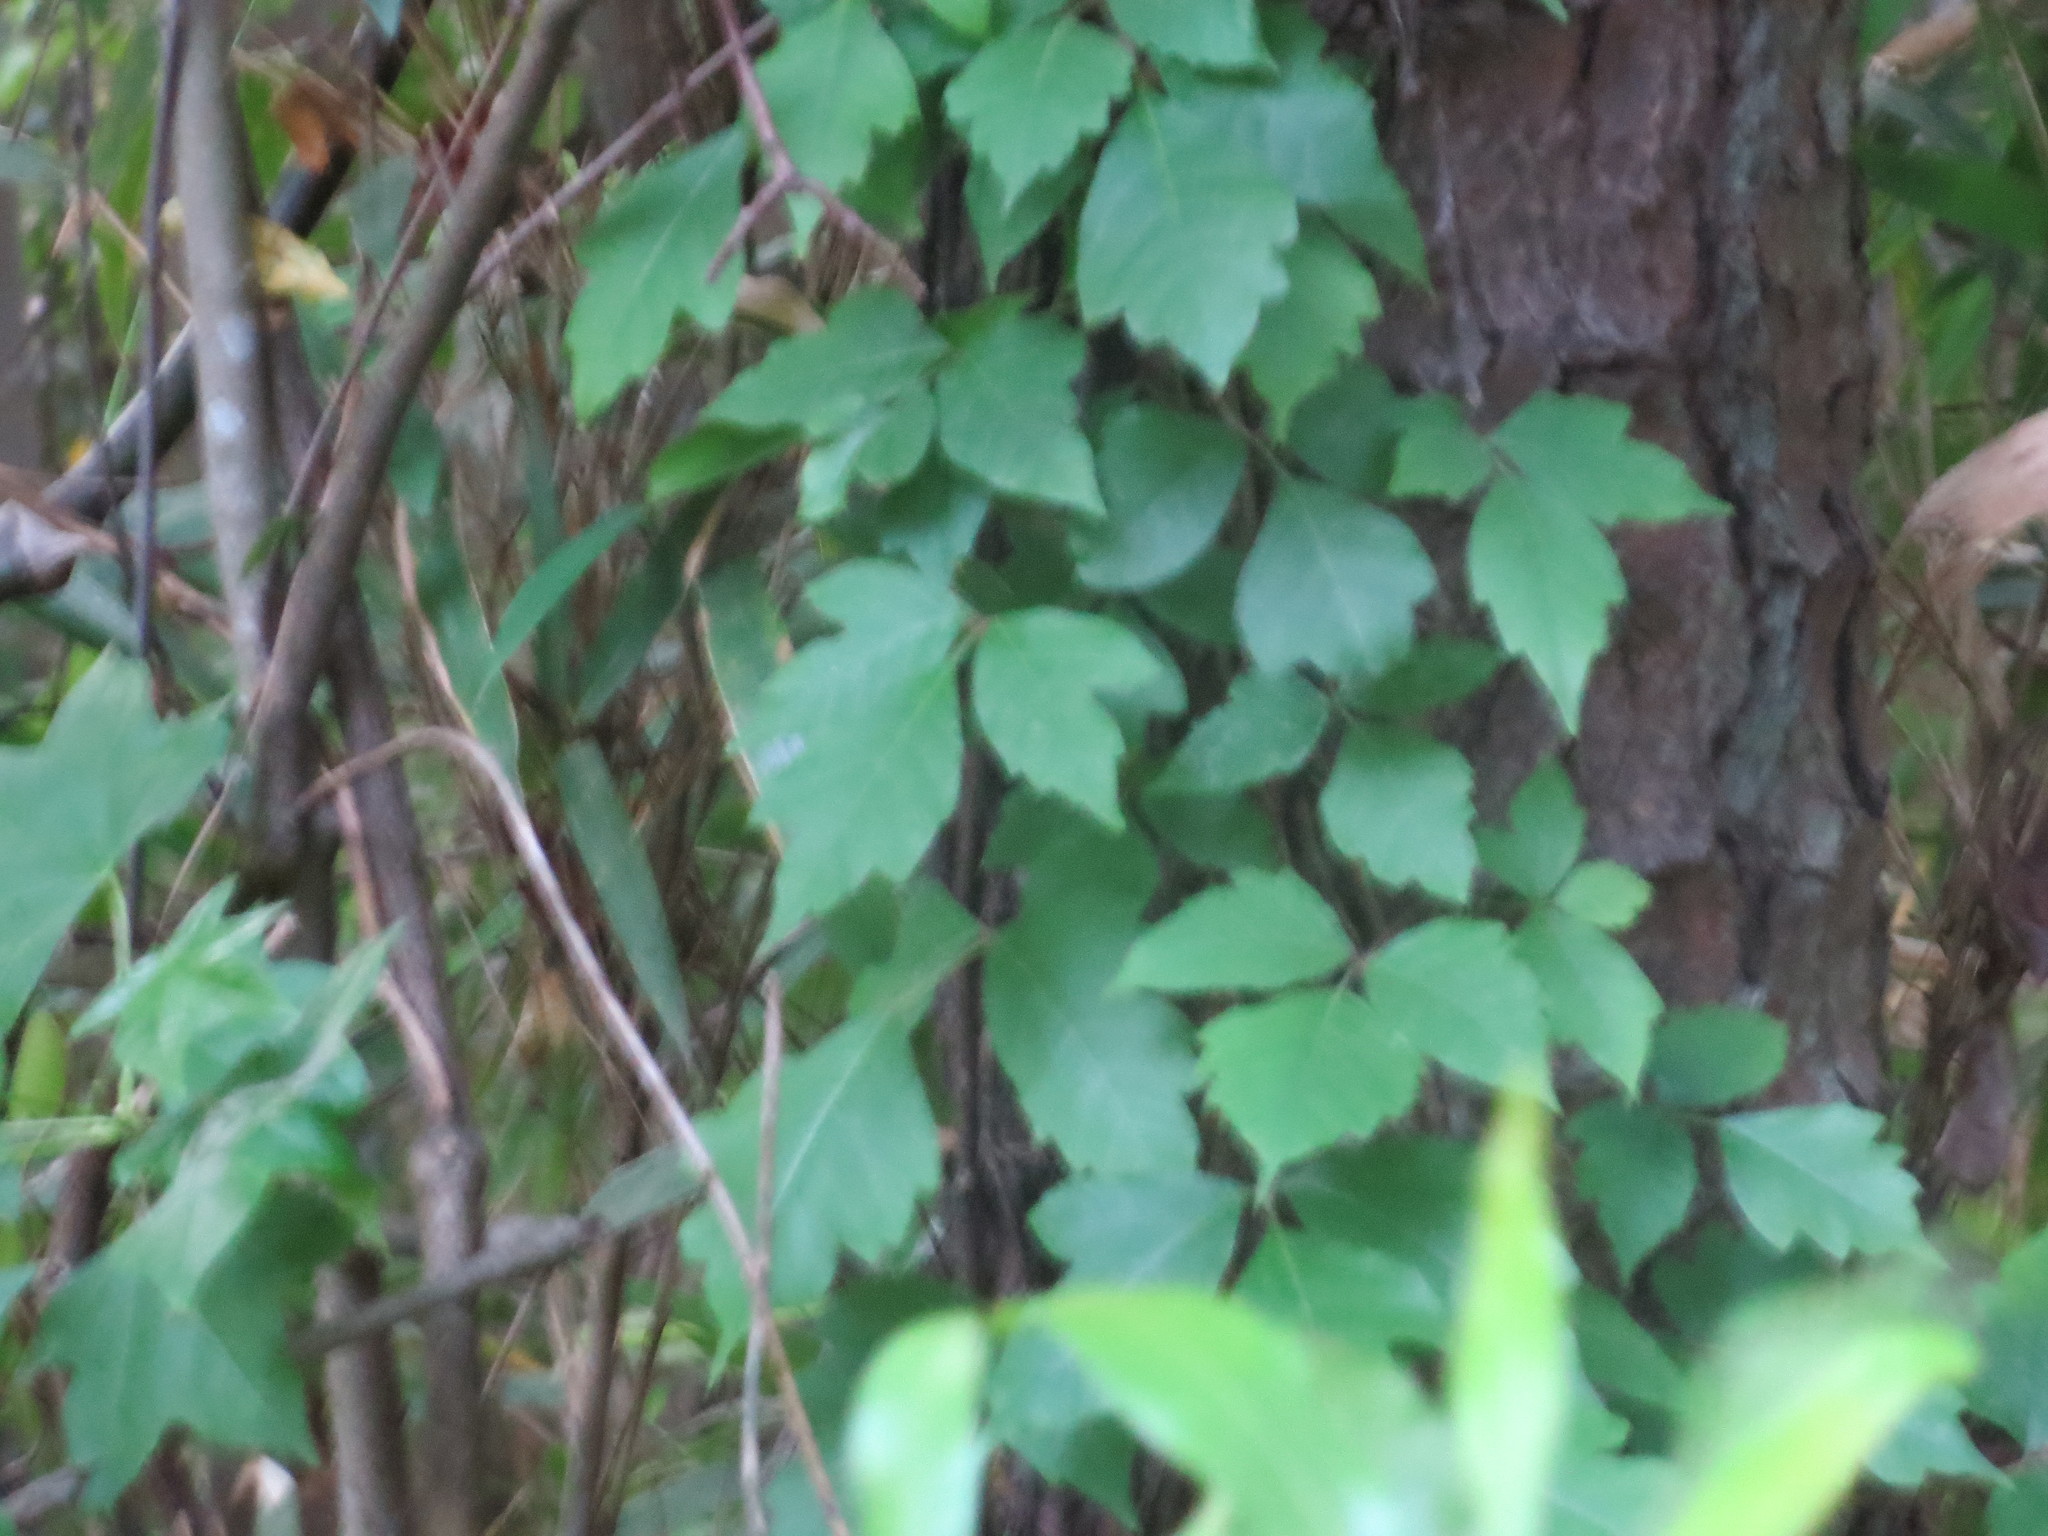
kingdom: Plantae
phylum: Tracheophyta
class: Magnoliopsida
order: Sapindales
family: Anacardiaceae
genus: Toxicodendron
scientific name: Toxicodendron radicans
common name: Poison ivy
